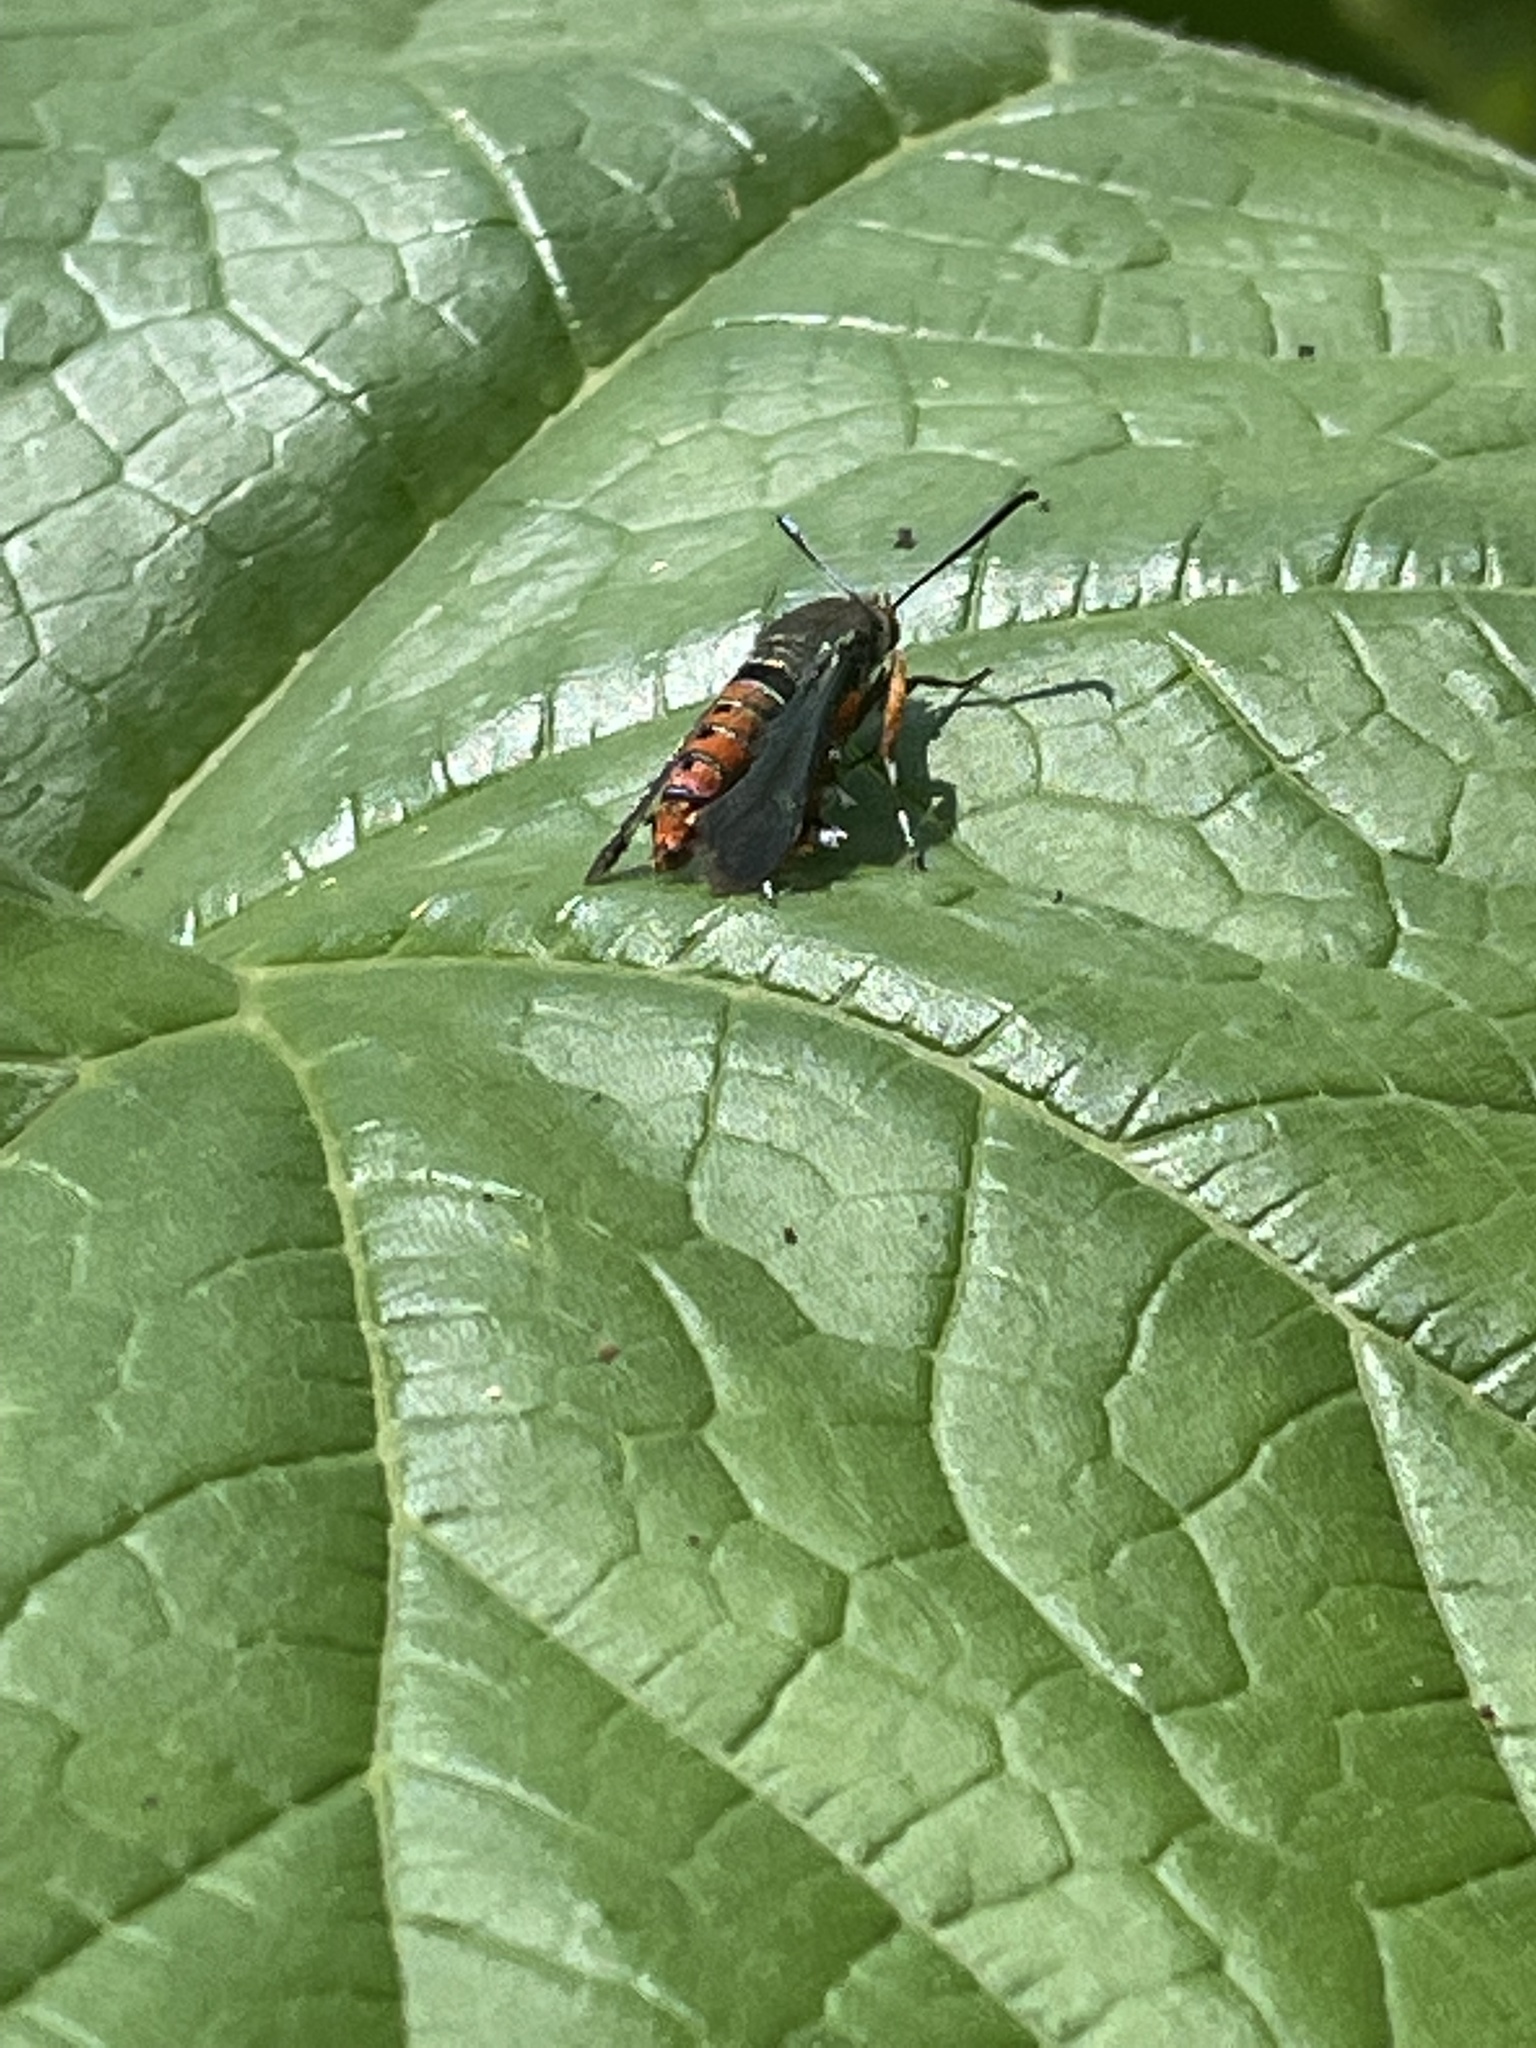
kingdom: Animalia
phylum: Arthropoda
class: Insecta
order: Lepidoptera
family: Sesiidae
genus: Eichlinia
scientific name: Eichlinia cucurbitae
